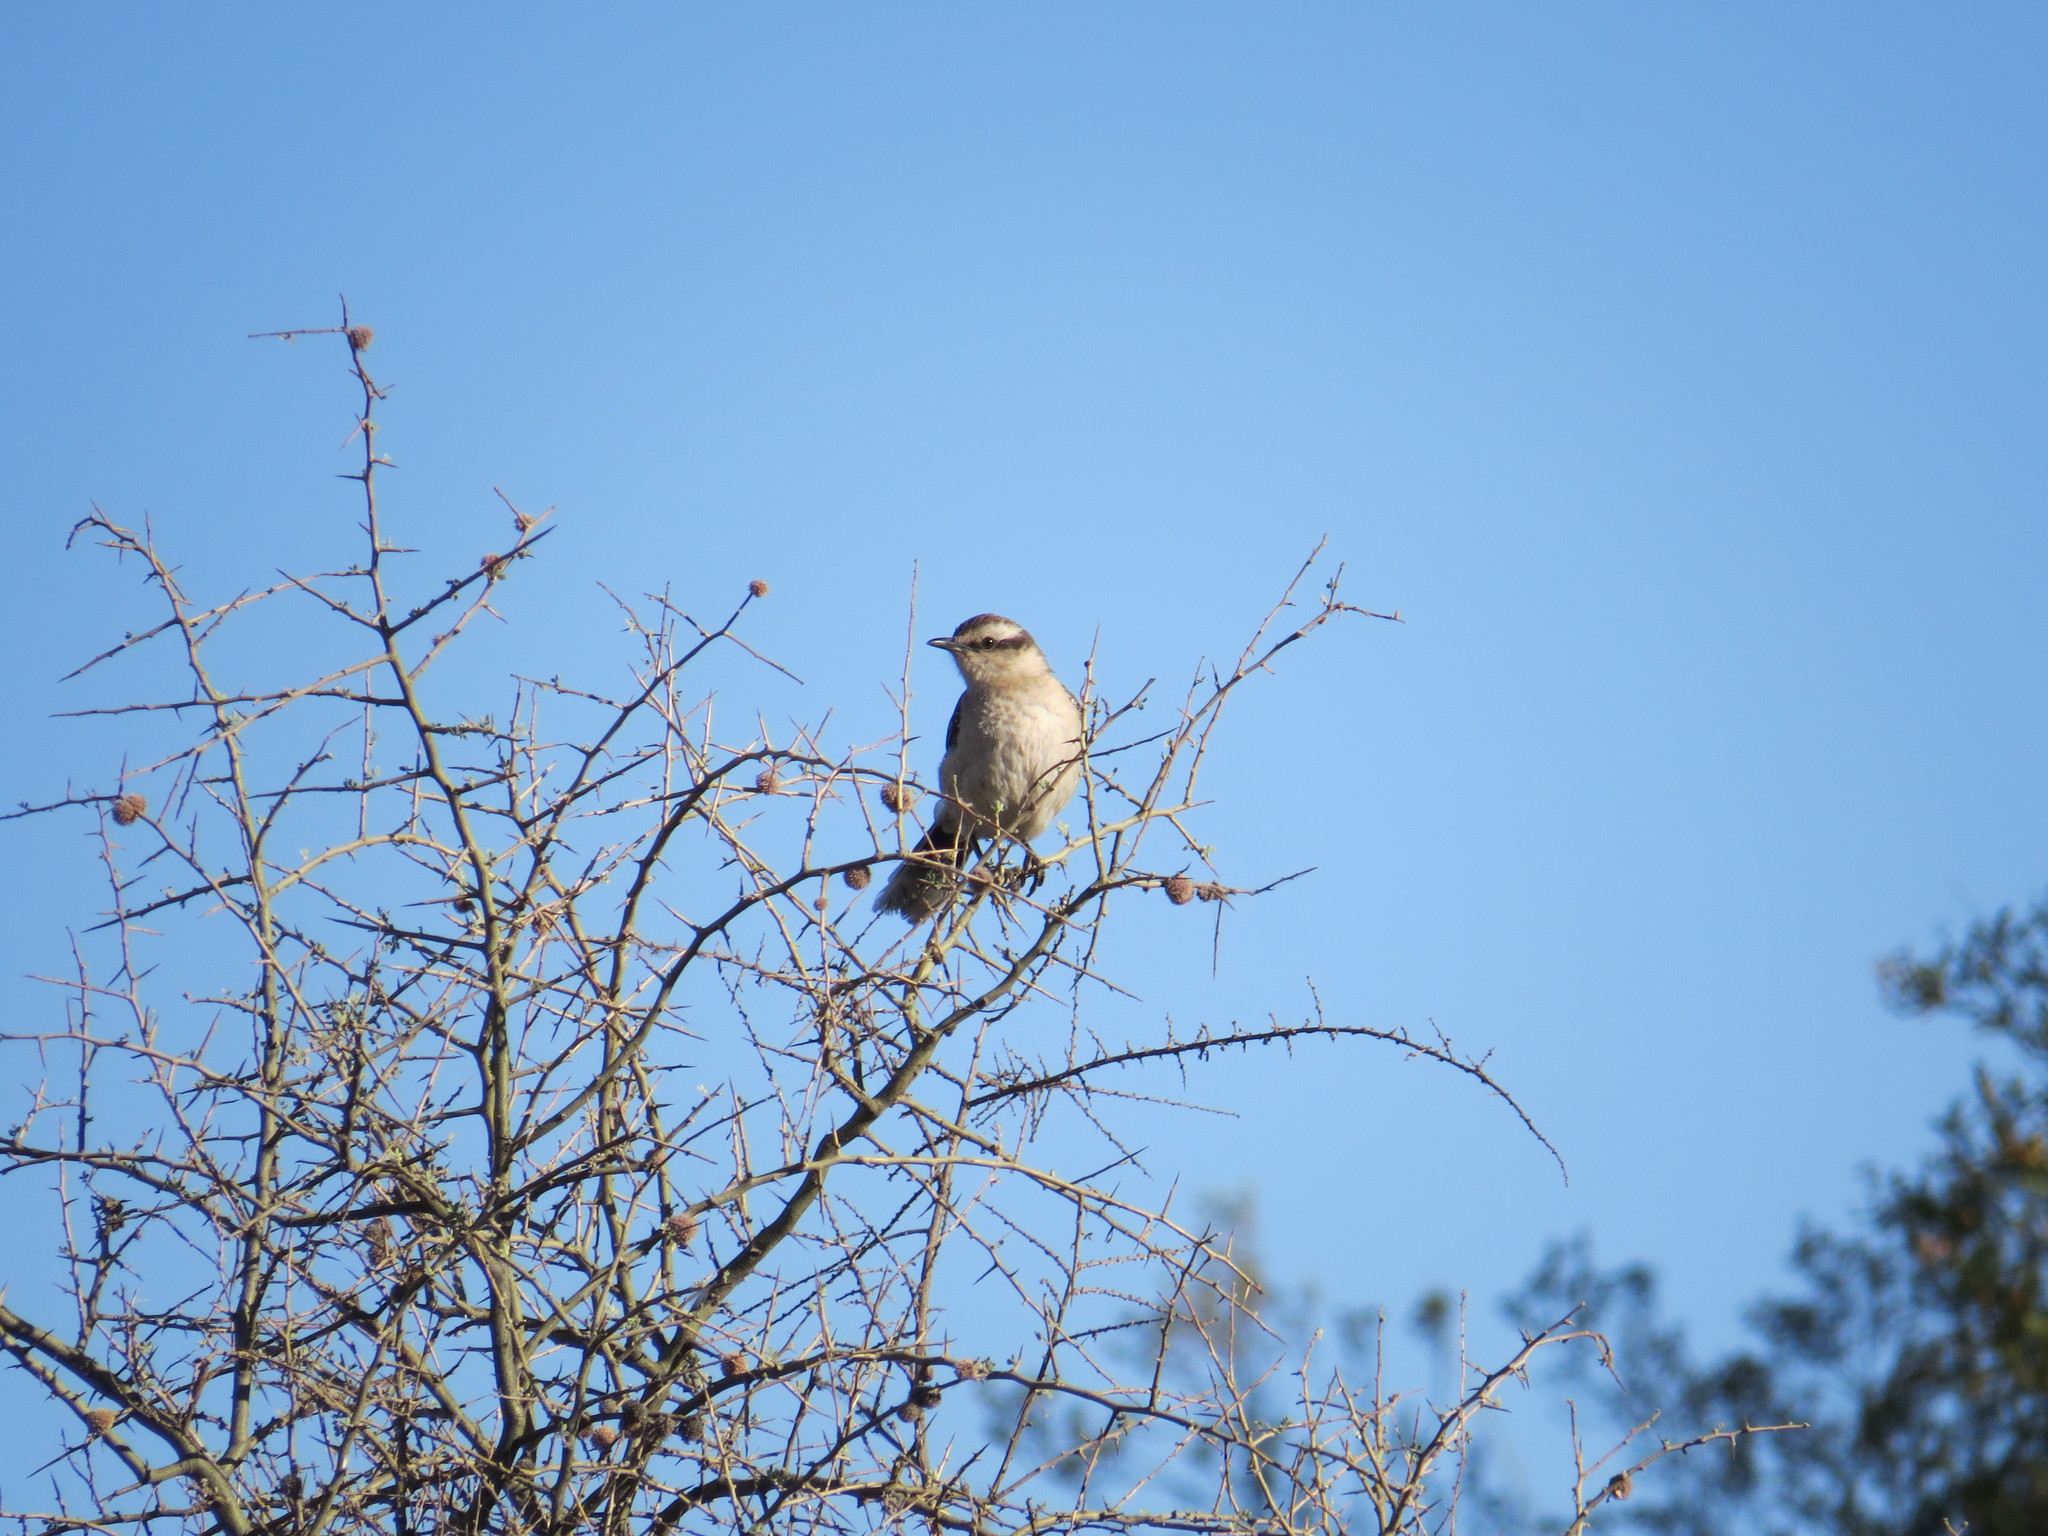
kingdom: Animalia
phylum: Chordata
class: Aves
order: Passeriformes
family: Mimidae
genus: Mimus
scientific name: Mimus saturninus
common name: Chalk-browed mockingbird
